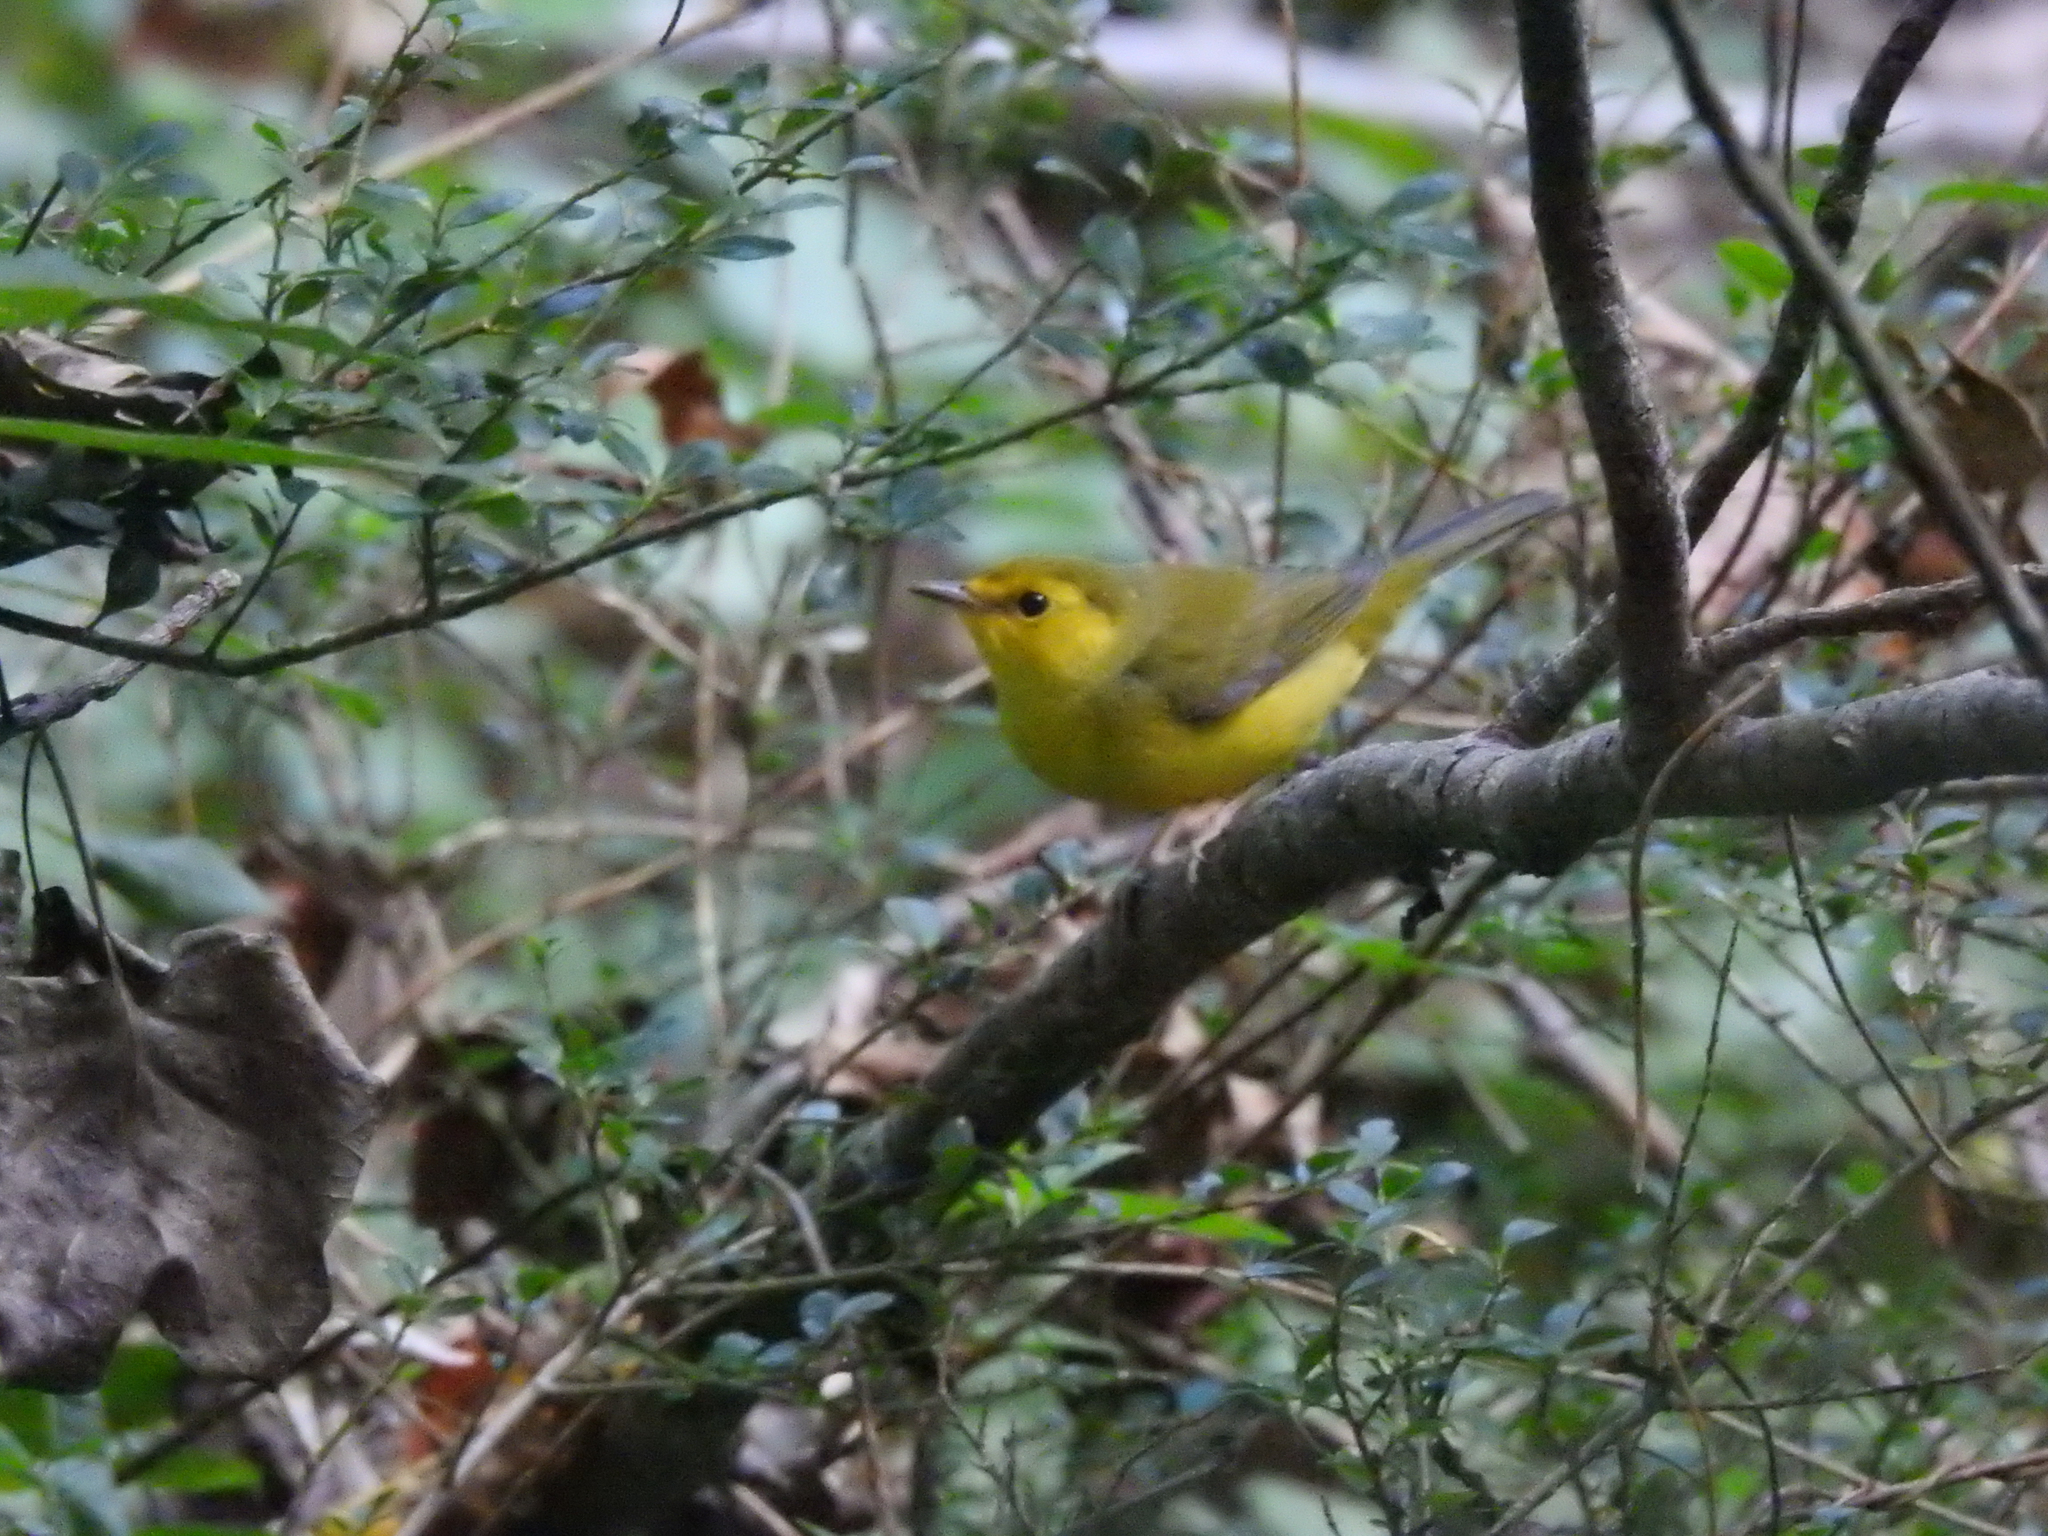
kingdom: Animalia
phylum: Chordata
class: Aves
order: Passeriformes
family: Parulidae
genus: Setophaga
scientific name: Setophaga citrina
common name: Hooded warbler
